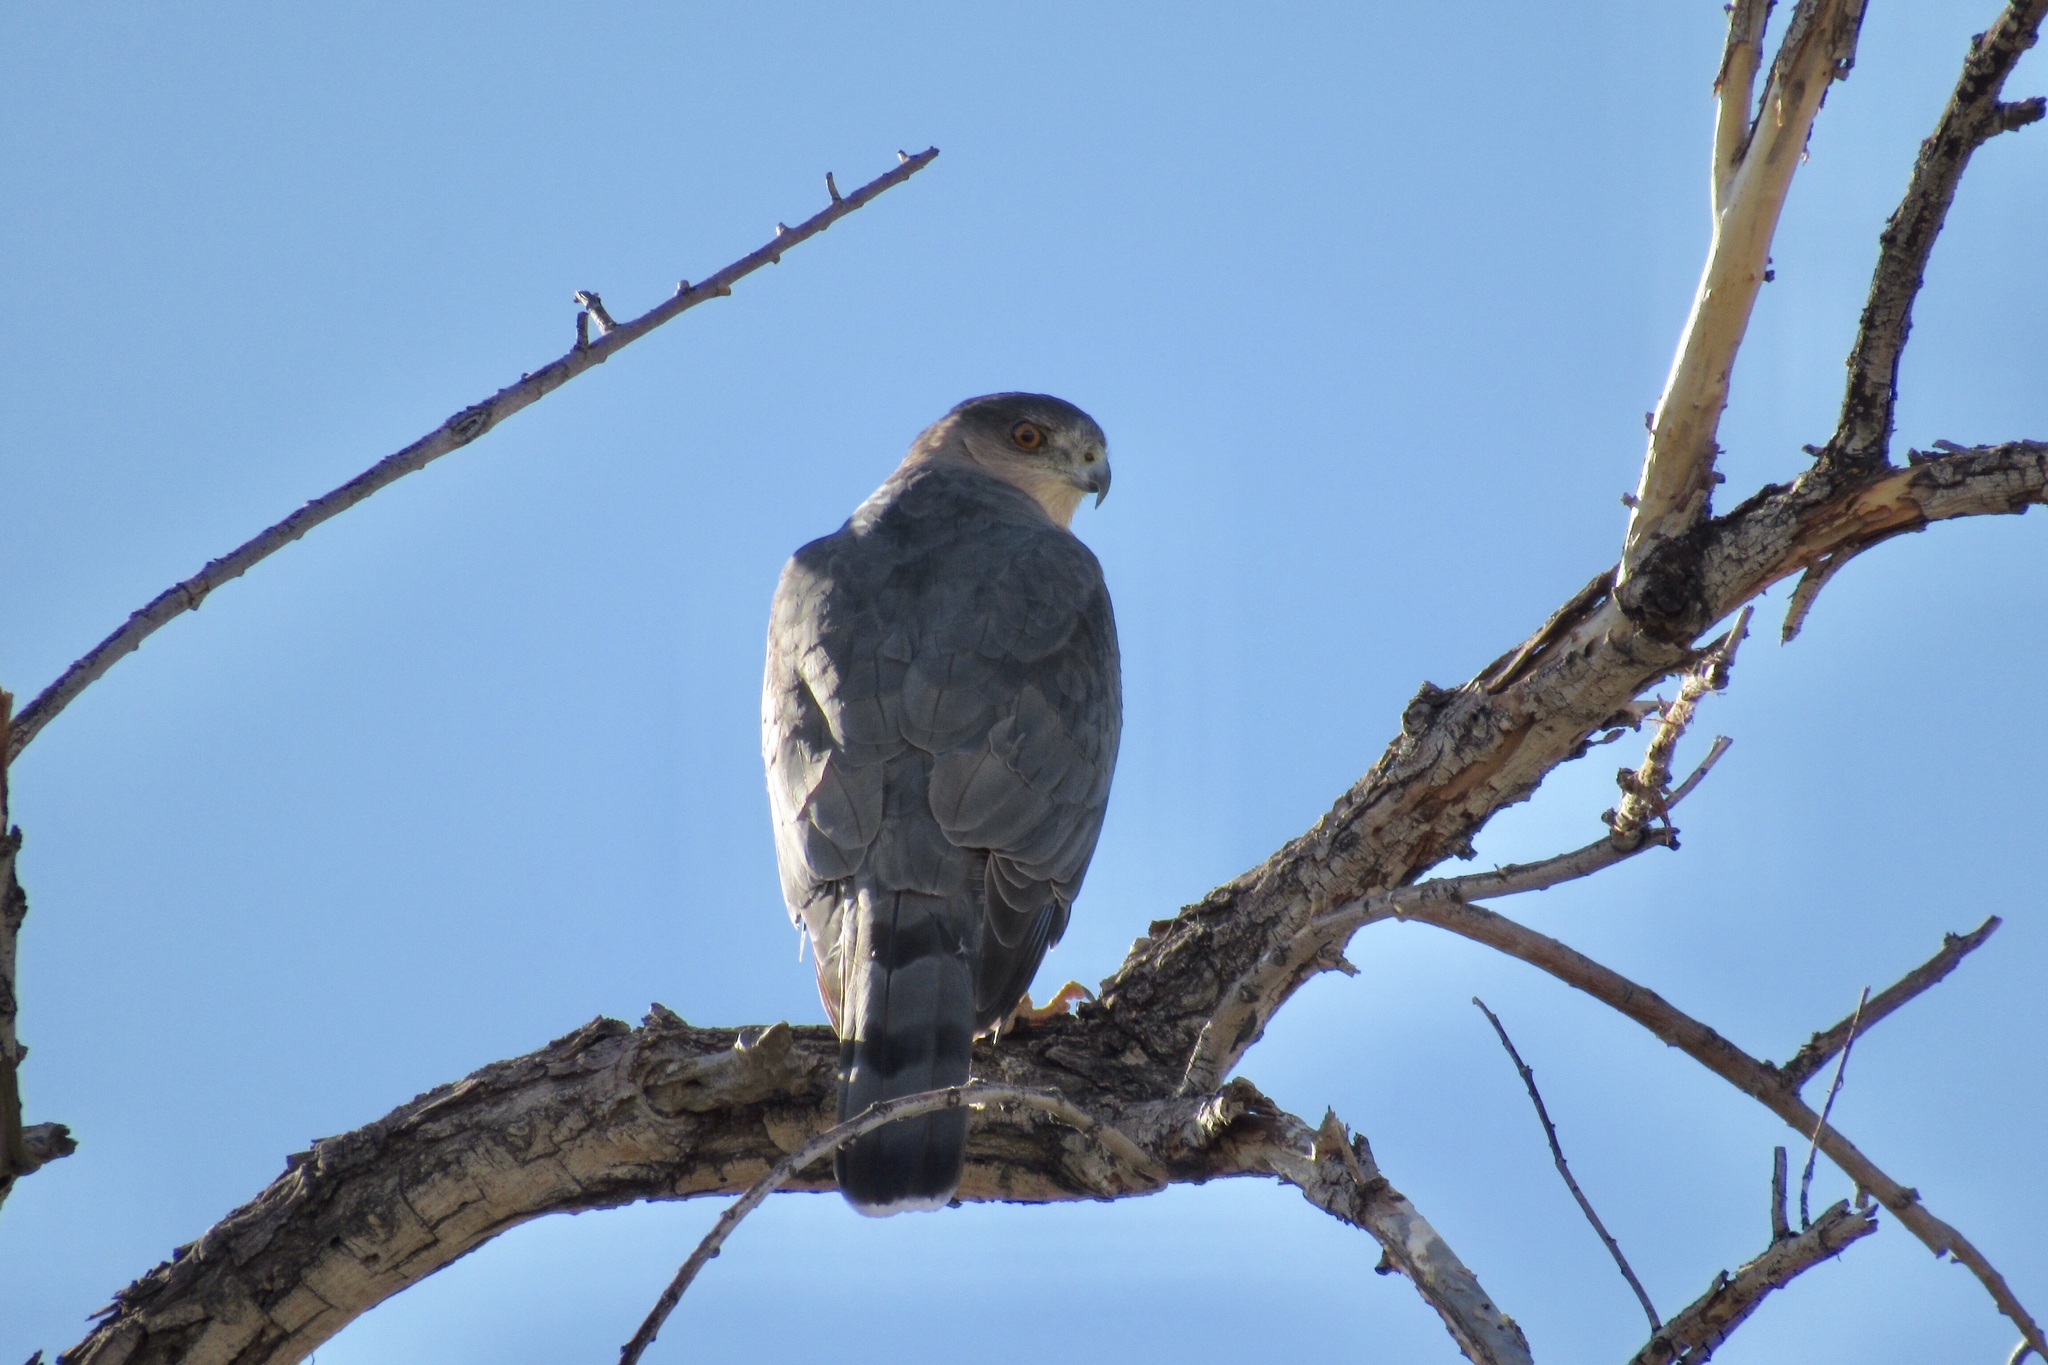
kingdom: Animalia
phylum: Chordata
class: Aves
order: Accipitriformes
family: Accipitridae
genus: Accipiter
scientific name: Accipiter cooperii
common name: Cooper's hawk
